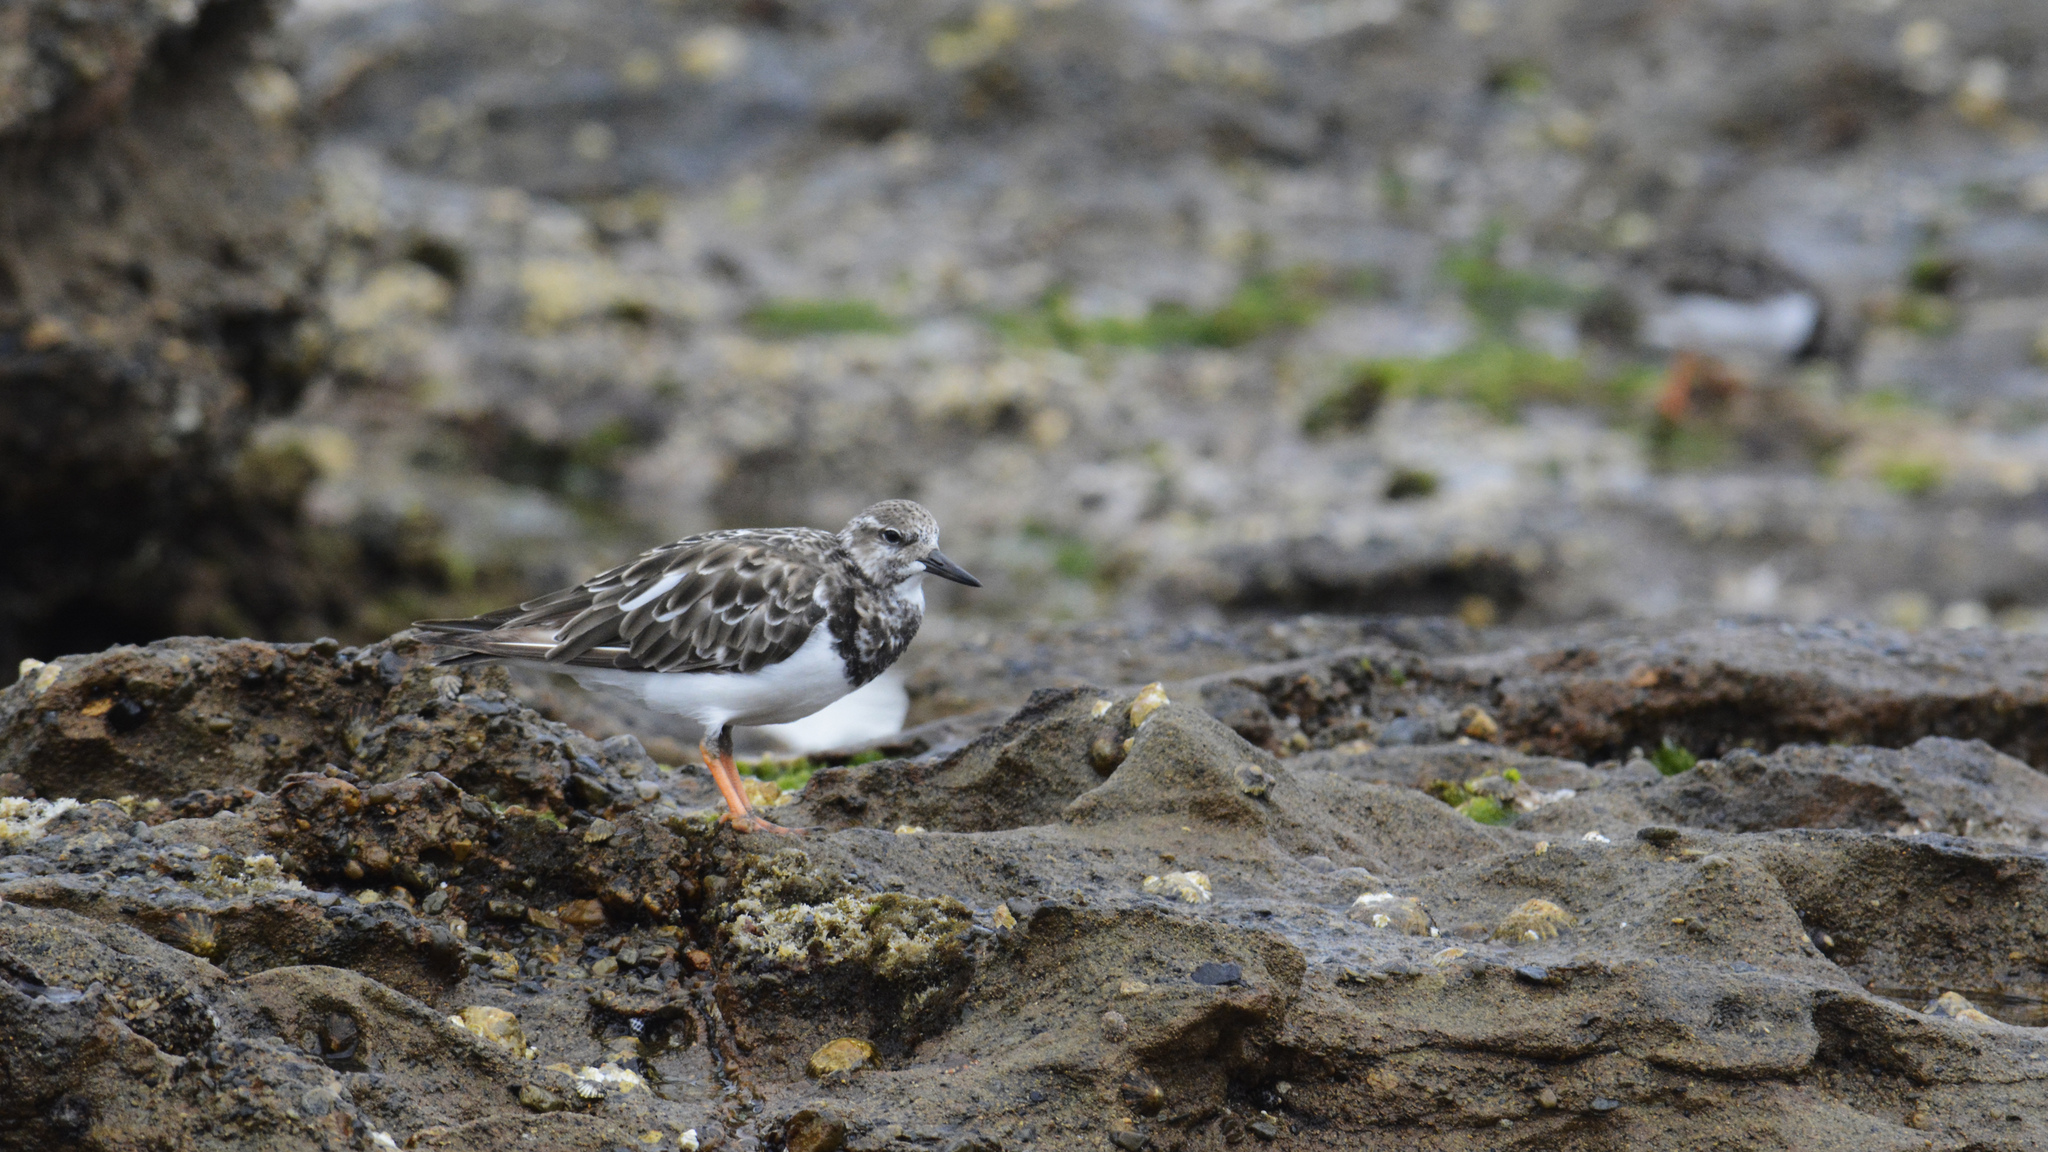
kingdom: Animalia
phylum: Chordata
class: Aves
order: Charadriiformes
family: Scolopacidae
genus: Arenaria
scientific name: Arenaria interpres
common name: Ruddy turnstone
